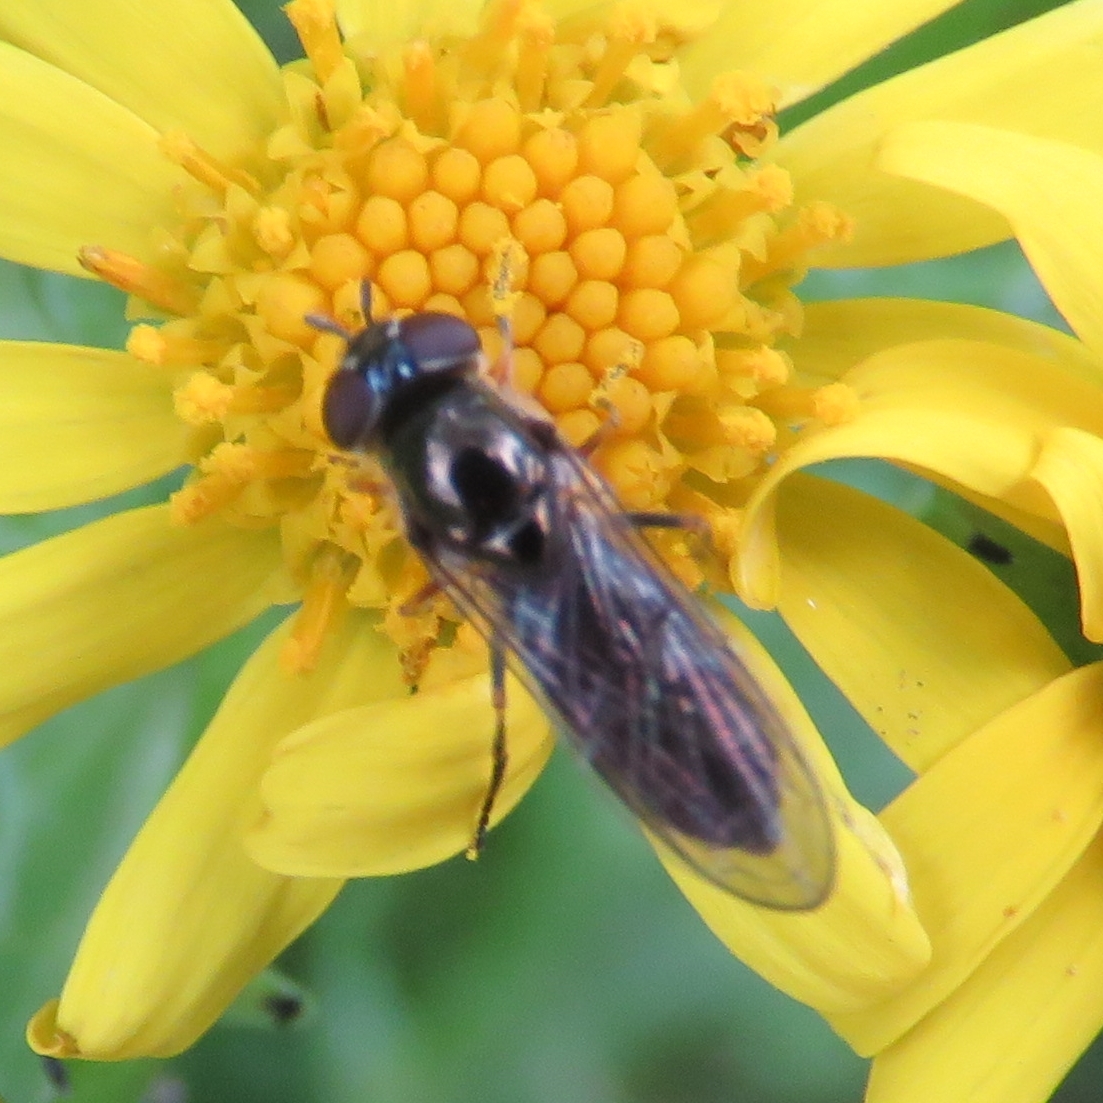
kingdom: Animalia
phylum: Arthropoda
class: Insecta
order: Diptera
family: Syrphidae
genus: Platycheirus
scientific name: Platycheirus albimanus
